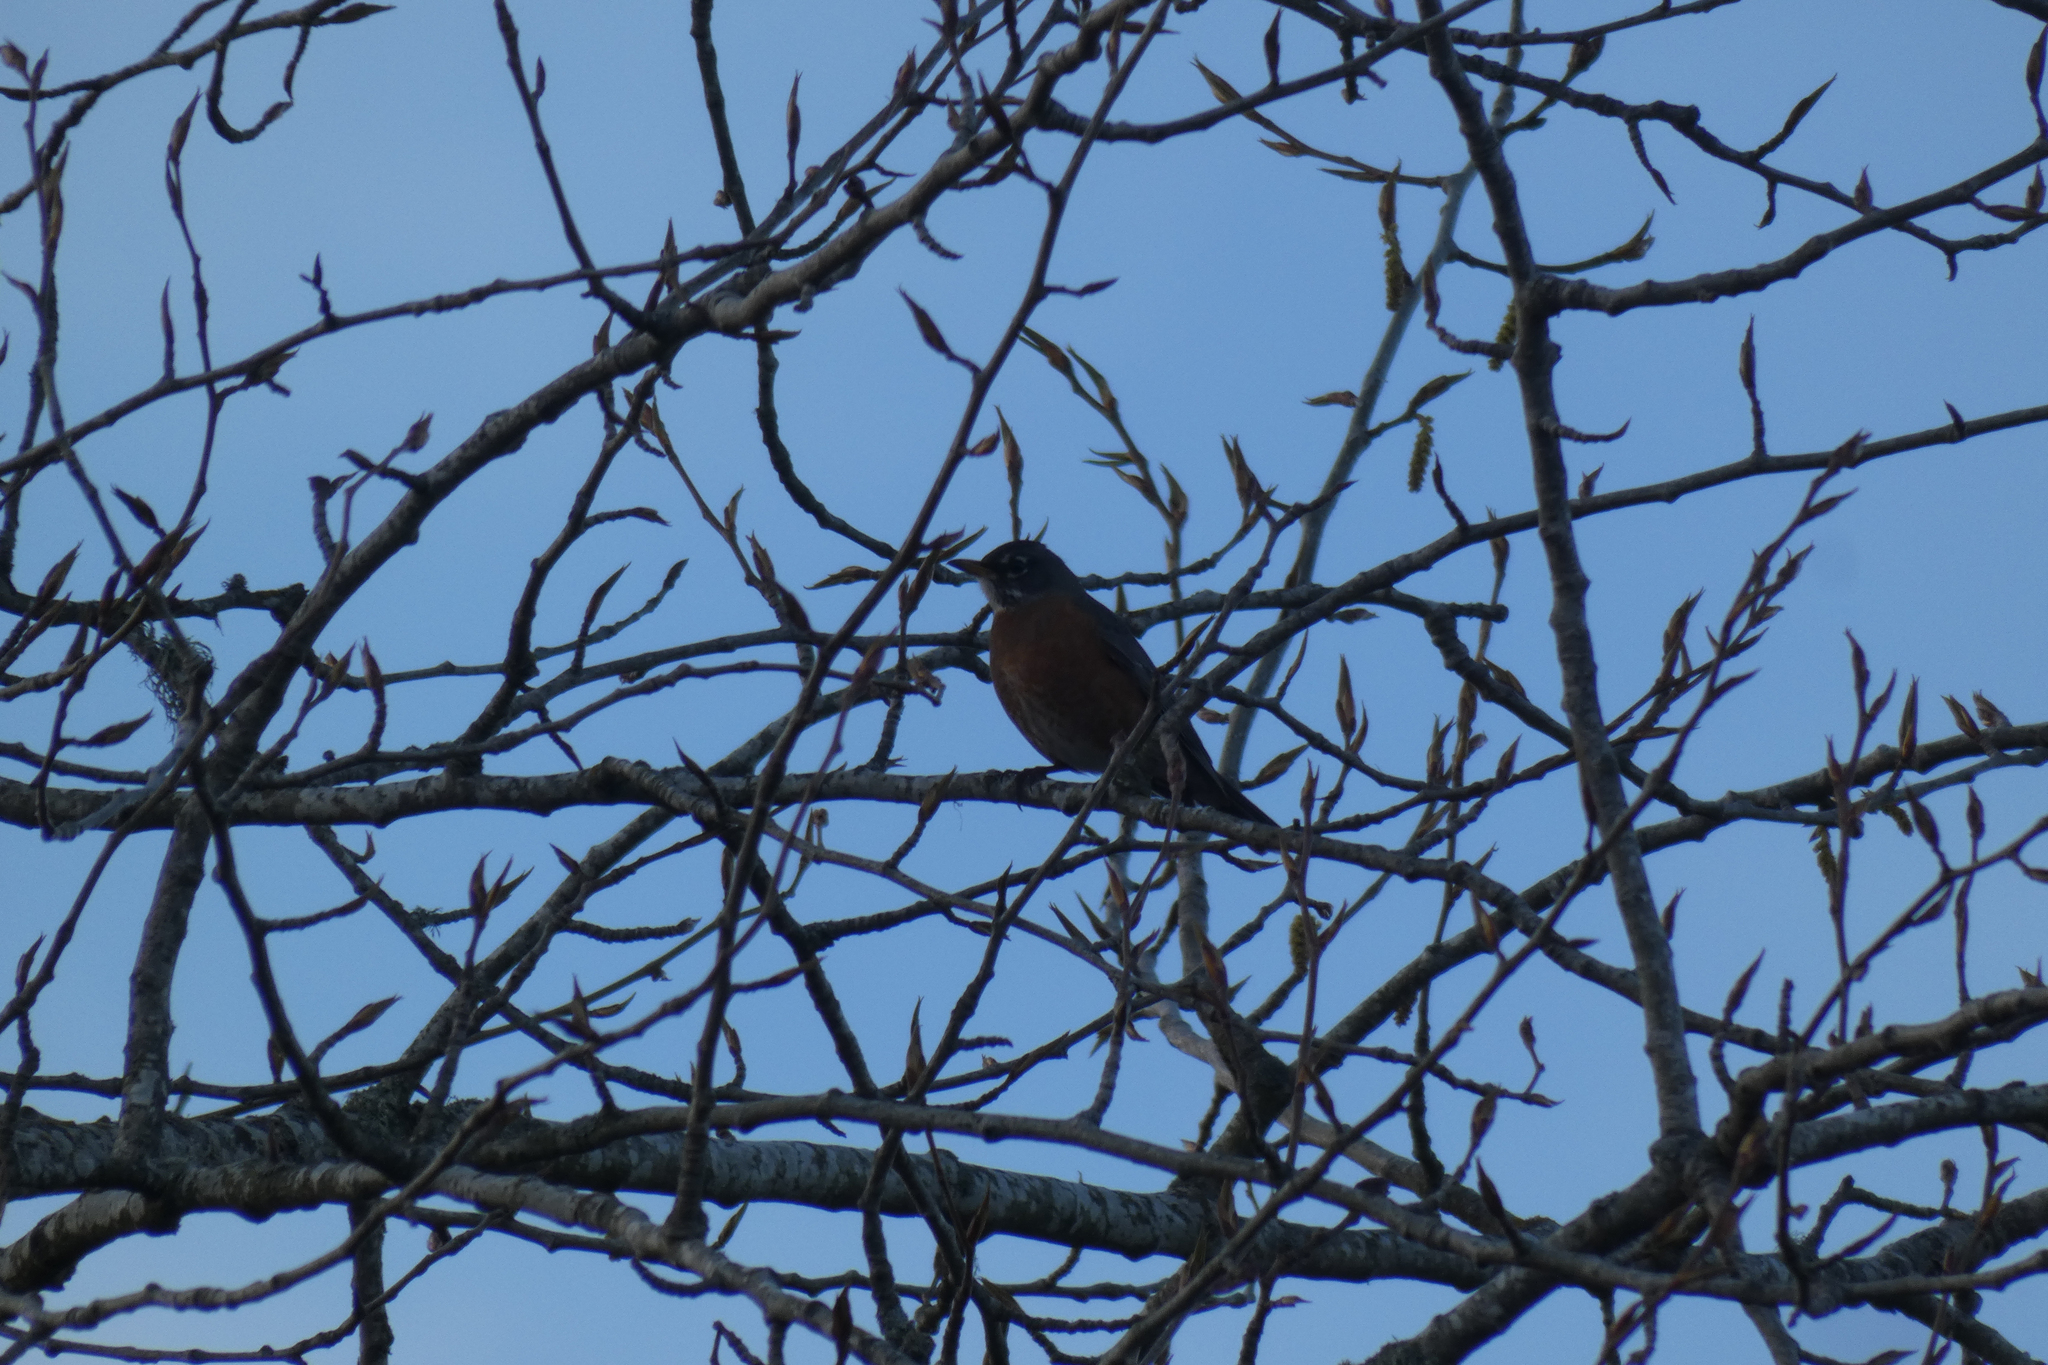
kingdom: Animalia
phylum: Chordata
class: Aves
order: Passeriformes
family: Turdidae
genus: Turdus
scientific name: Turdus migratorius
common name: American robin
